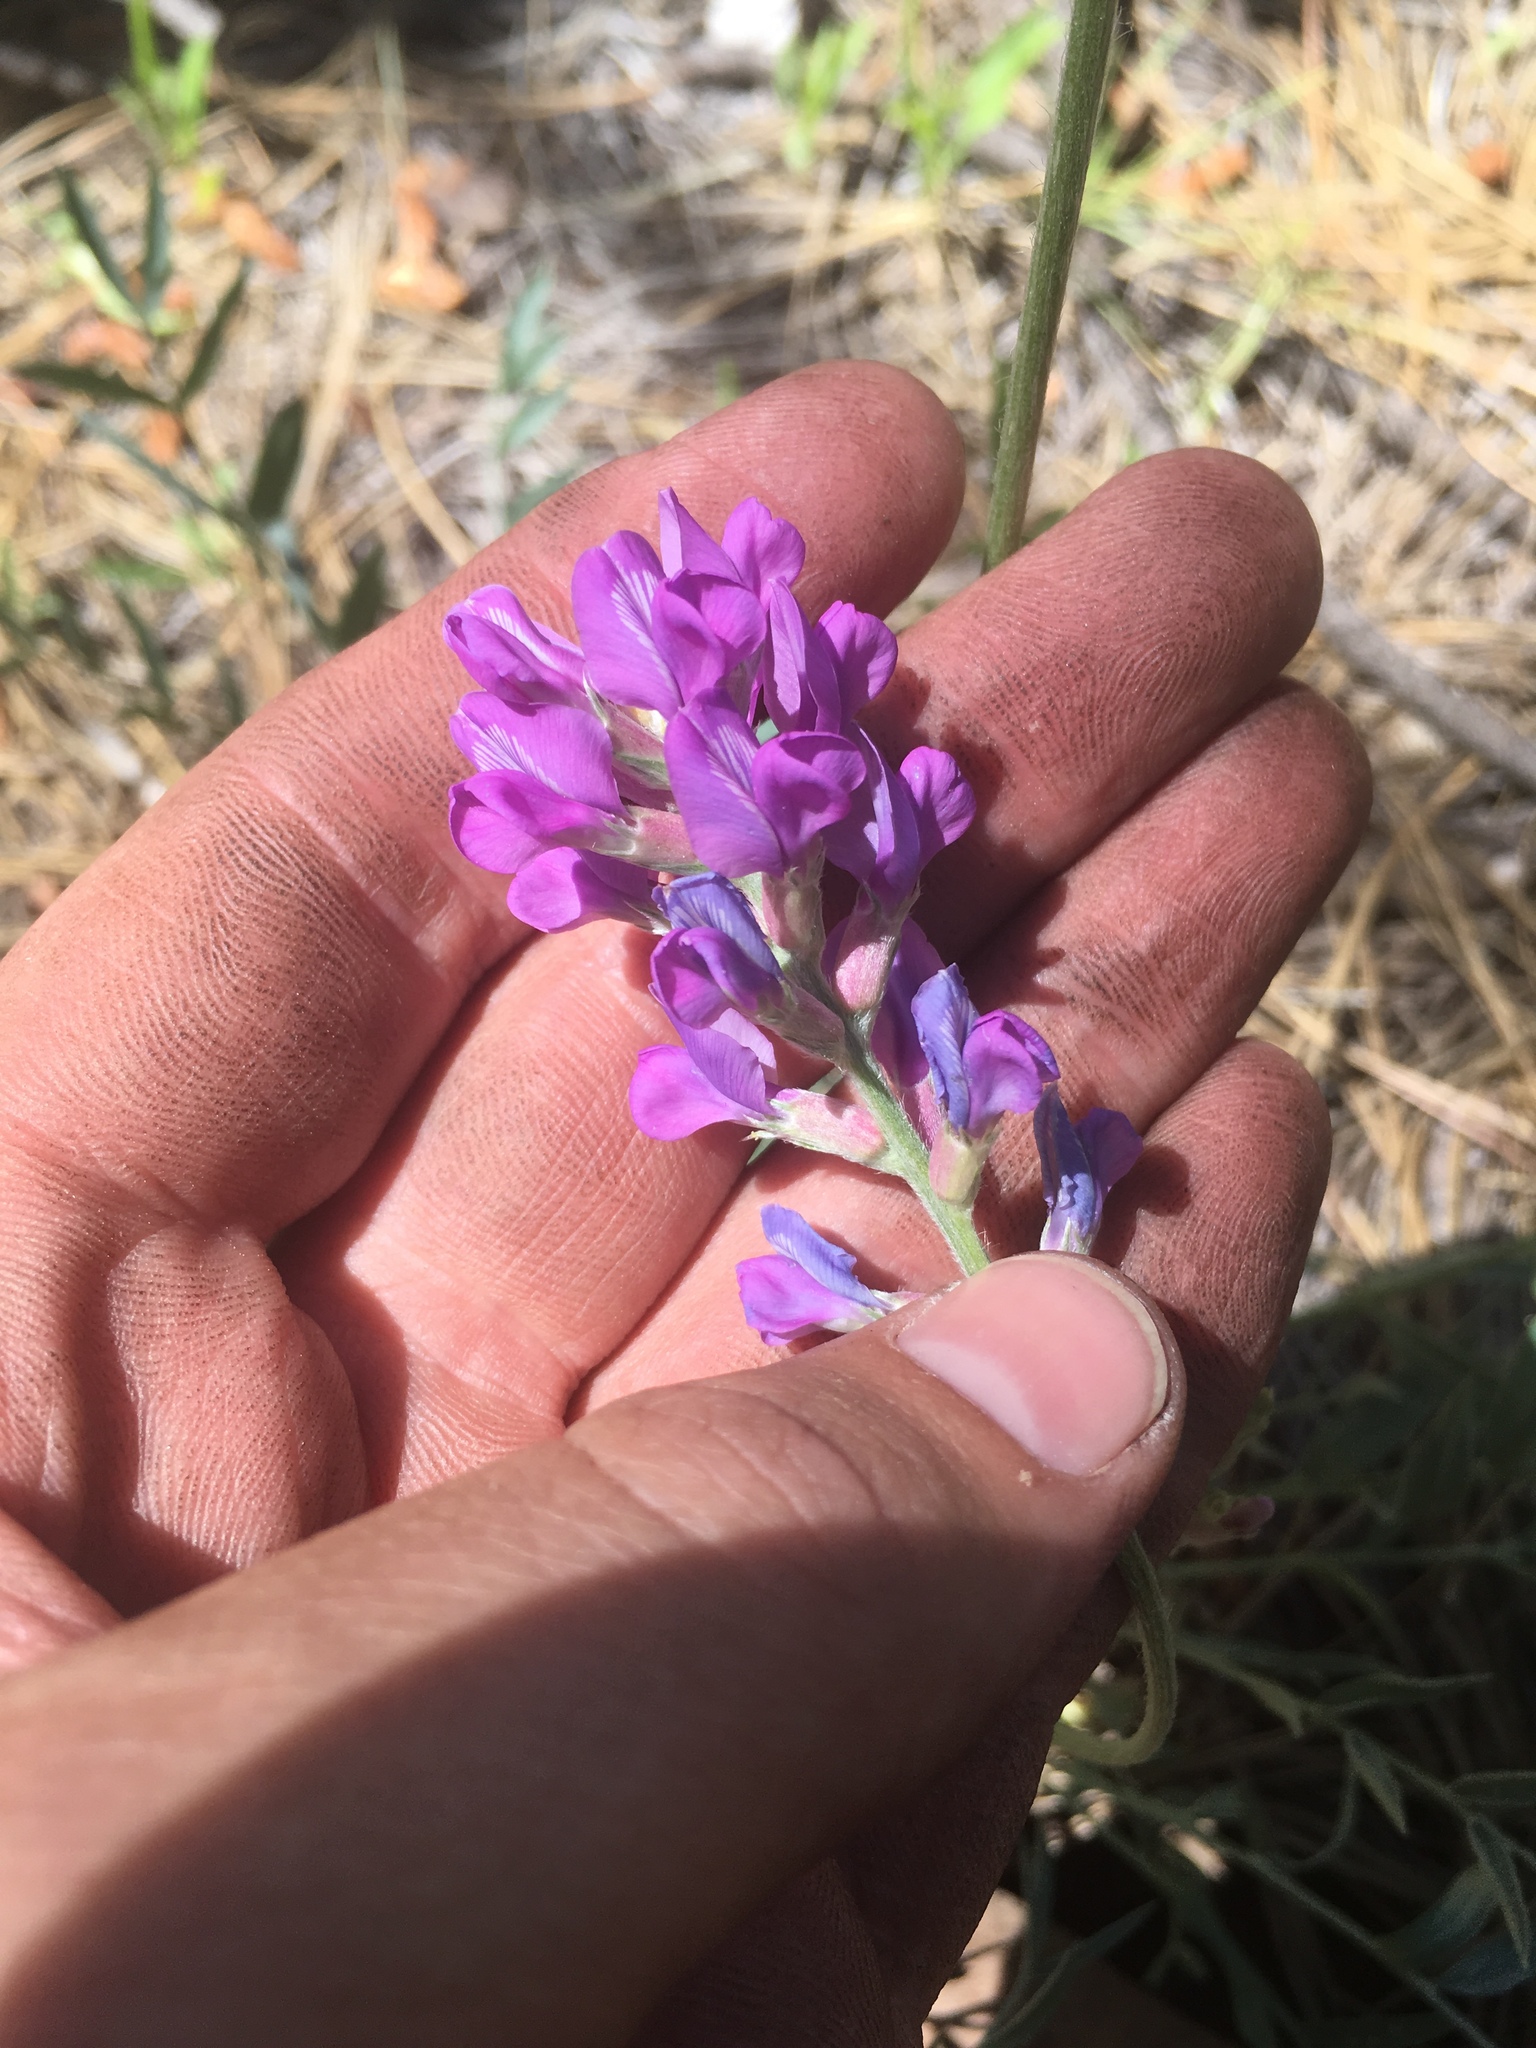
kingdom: Plantae
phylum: Tracheophyta
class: Magnoliopsida
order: Fabales
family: Fabaceae
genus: Oxytropis
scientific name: Oxytropis lambertii
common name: Purple locoweed
